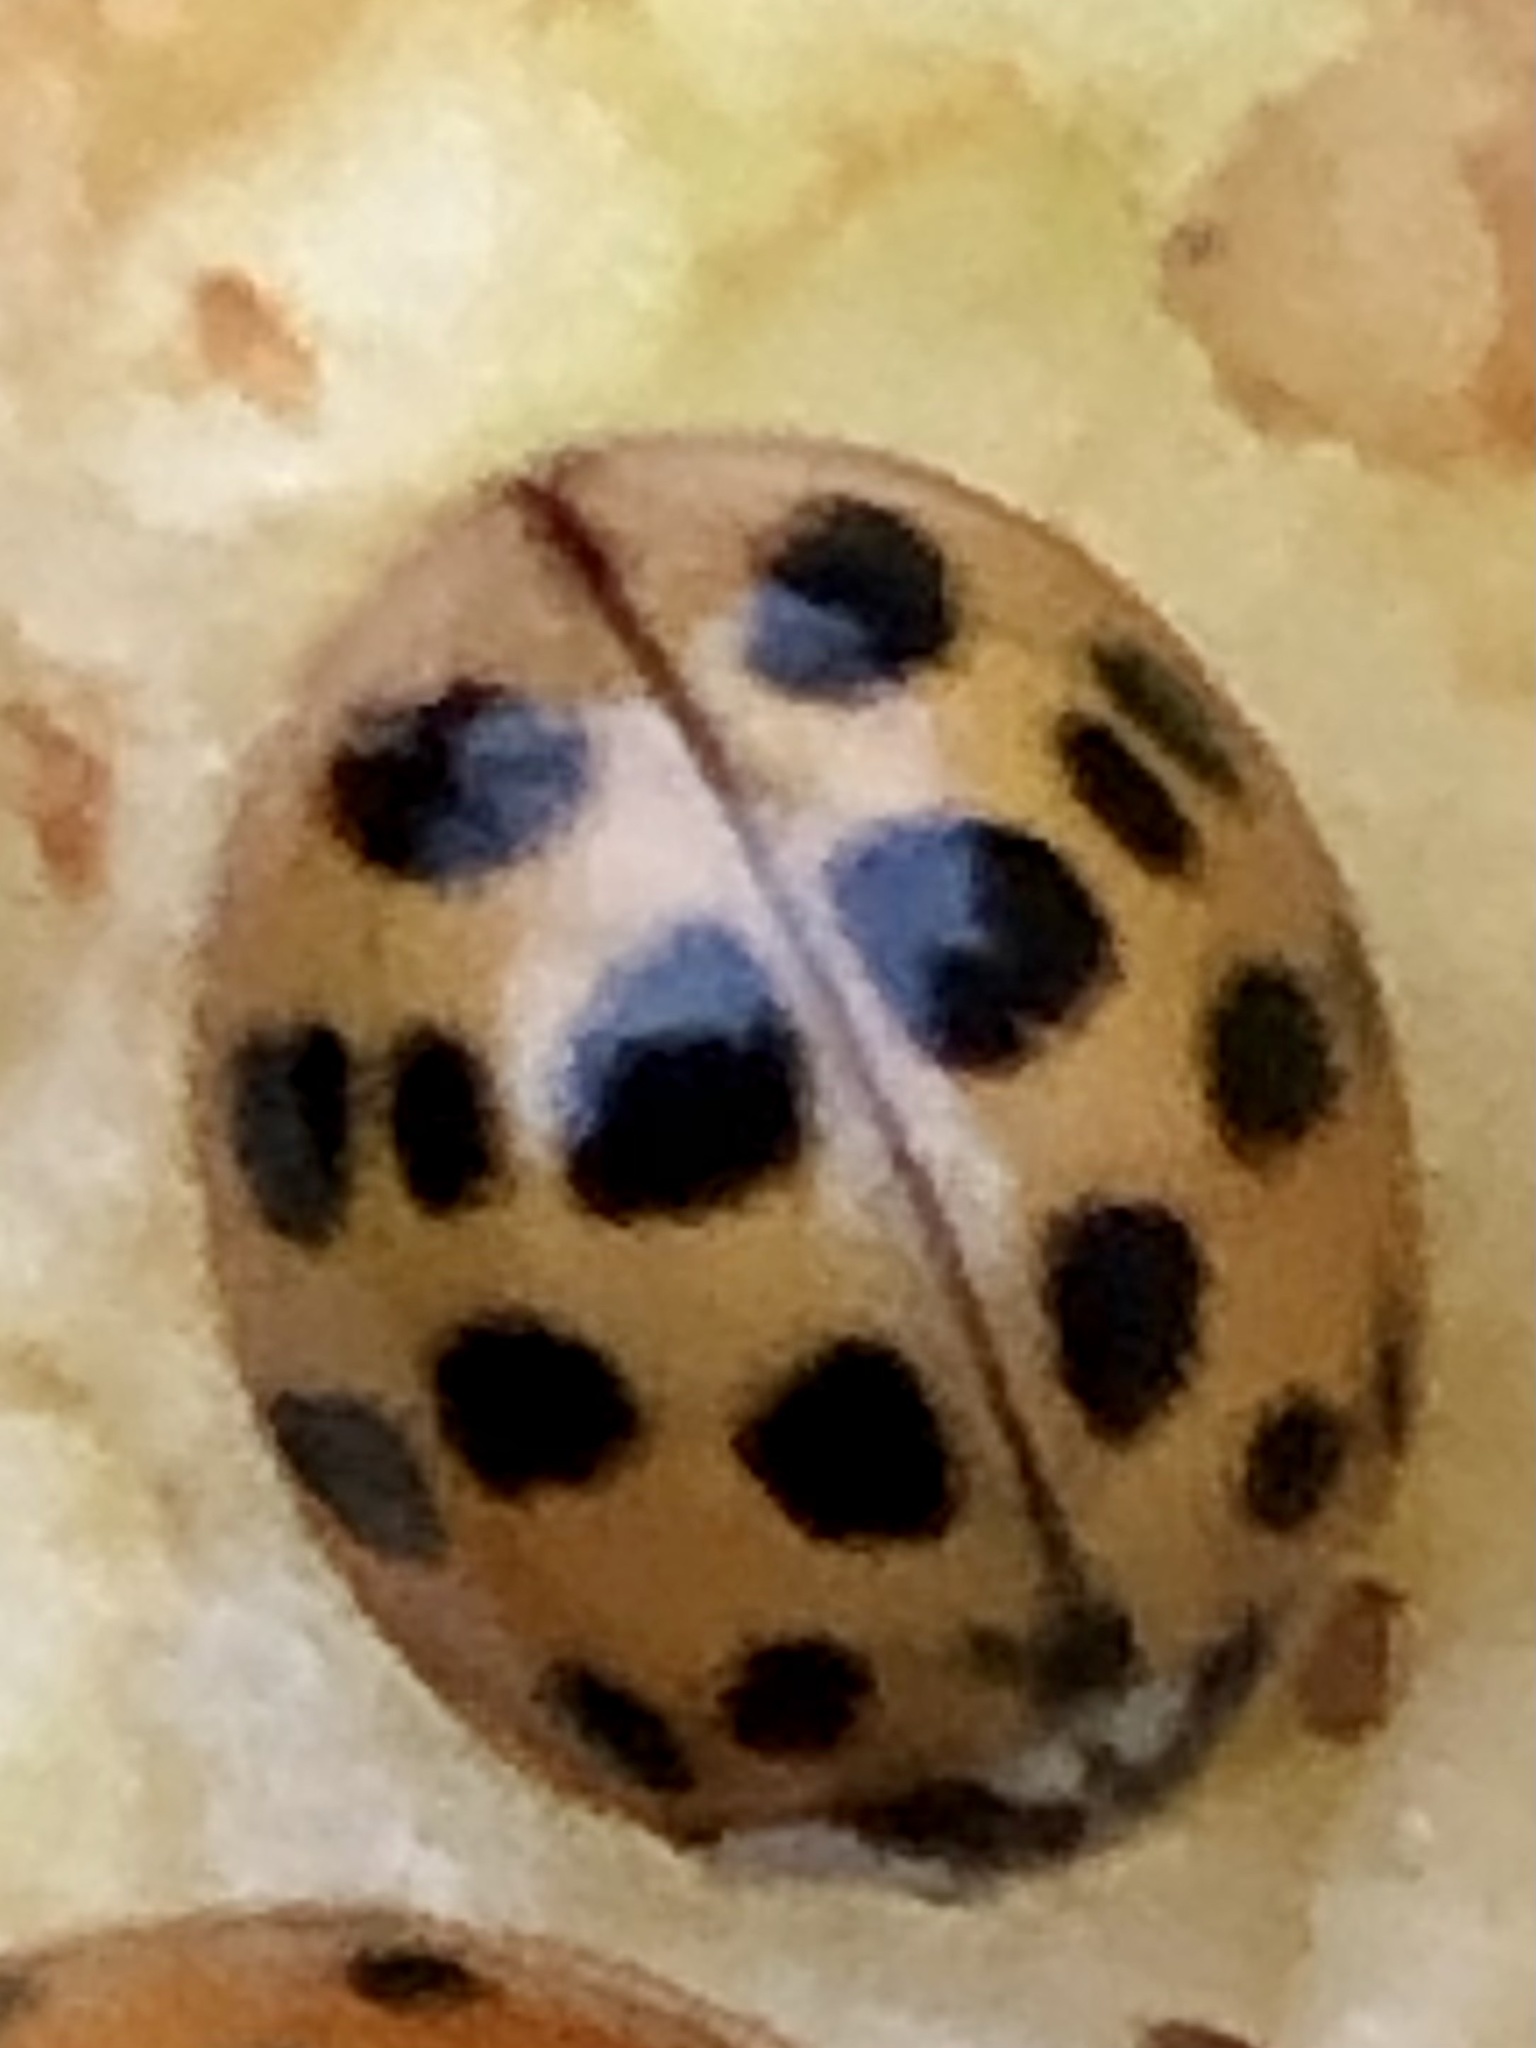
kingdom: Animalia
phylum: Arthropoda
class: Insecta
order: Coleoptera
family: Coccinellidae
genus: Harmonia
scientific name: Harmonia axyridis
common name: Harlequin ladybird
